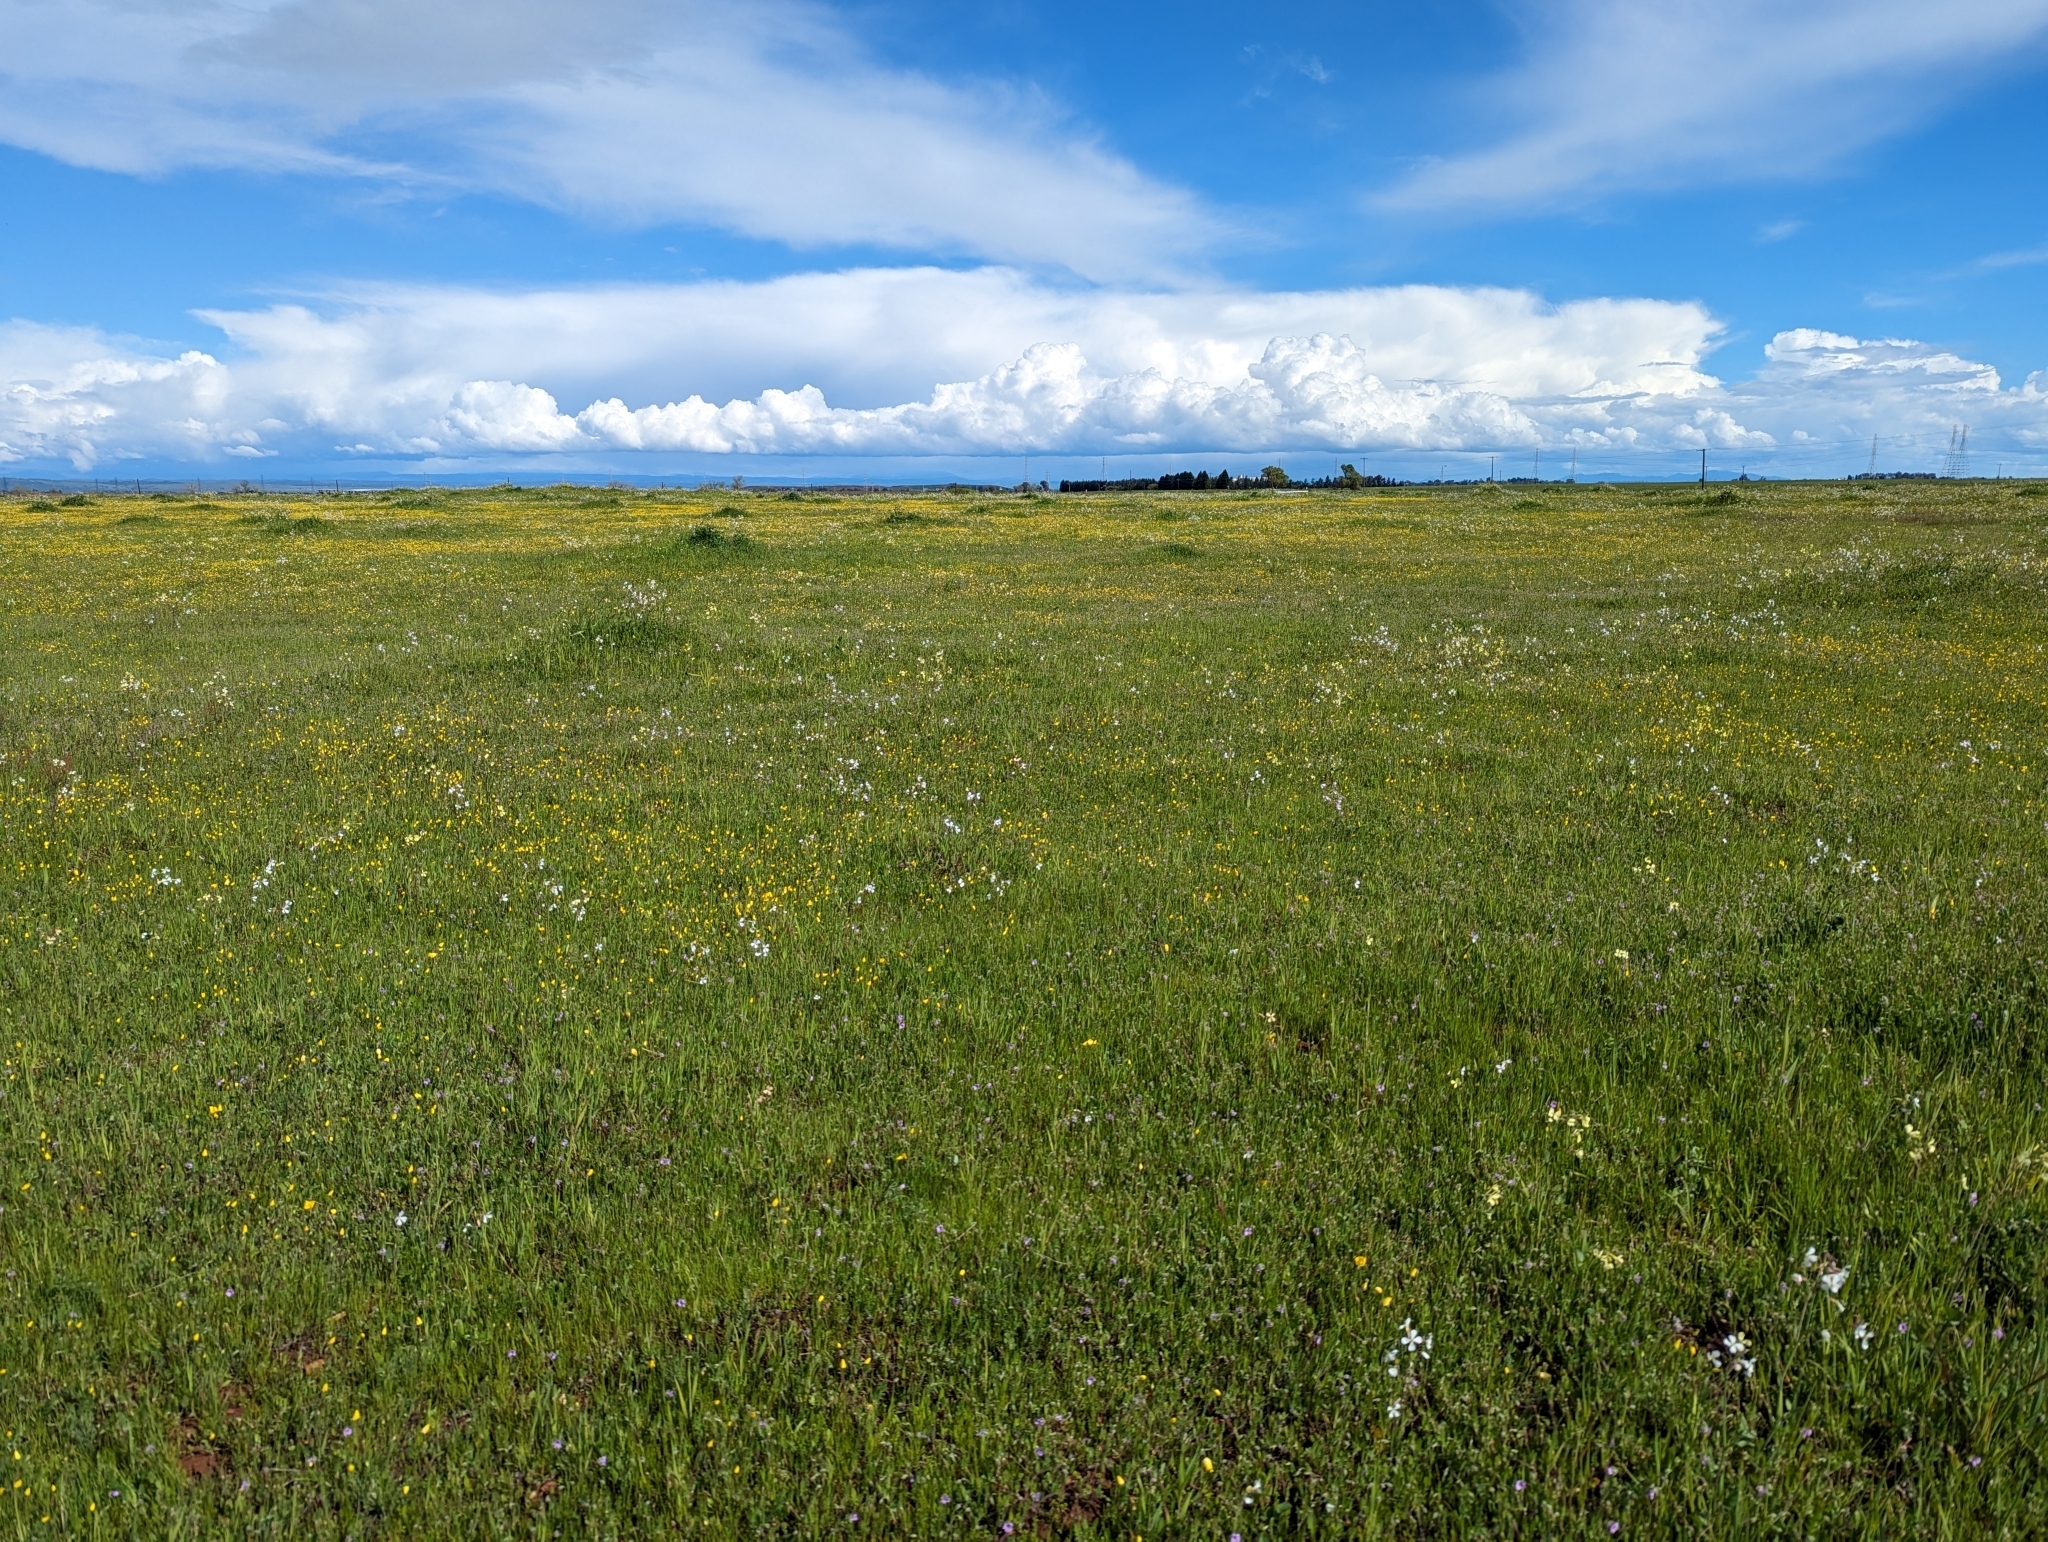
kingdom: Plantae
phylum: Tracheophyta
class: Magnoliopsida
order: Ranunculales
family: Papaveraceae
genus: Eschscholzia
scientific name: Eschscholzia lobbii
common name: Frying-pans
